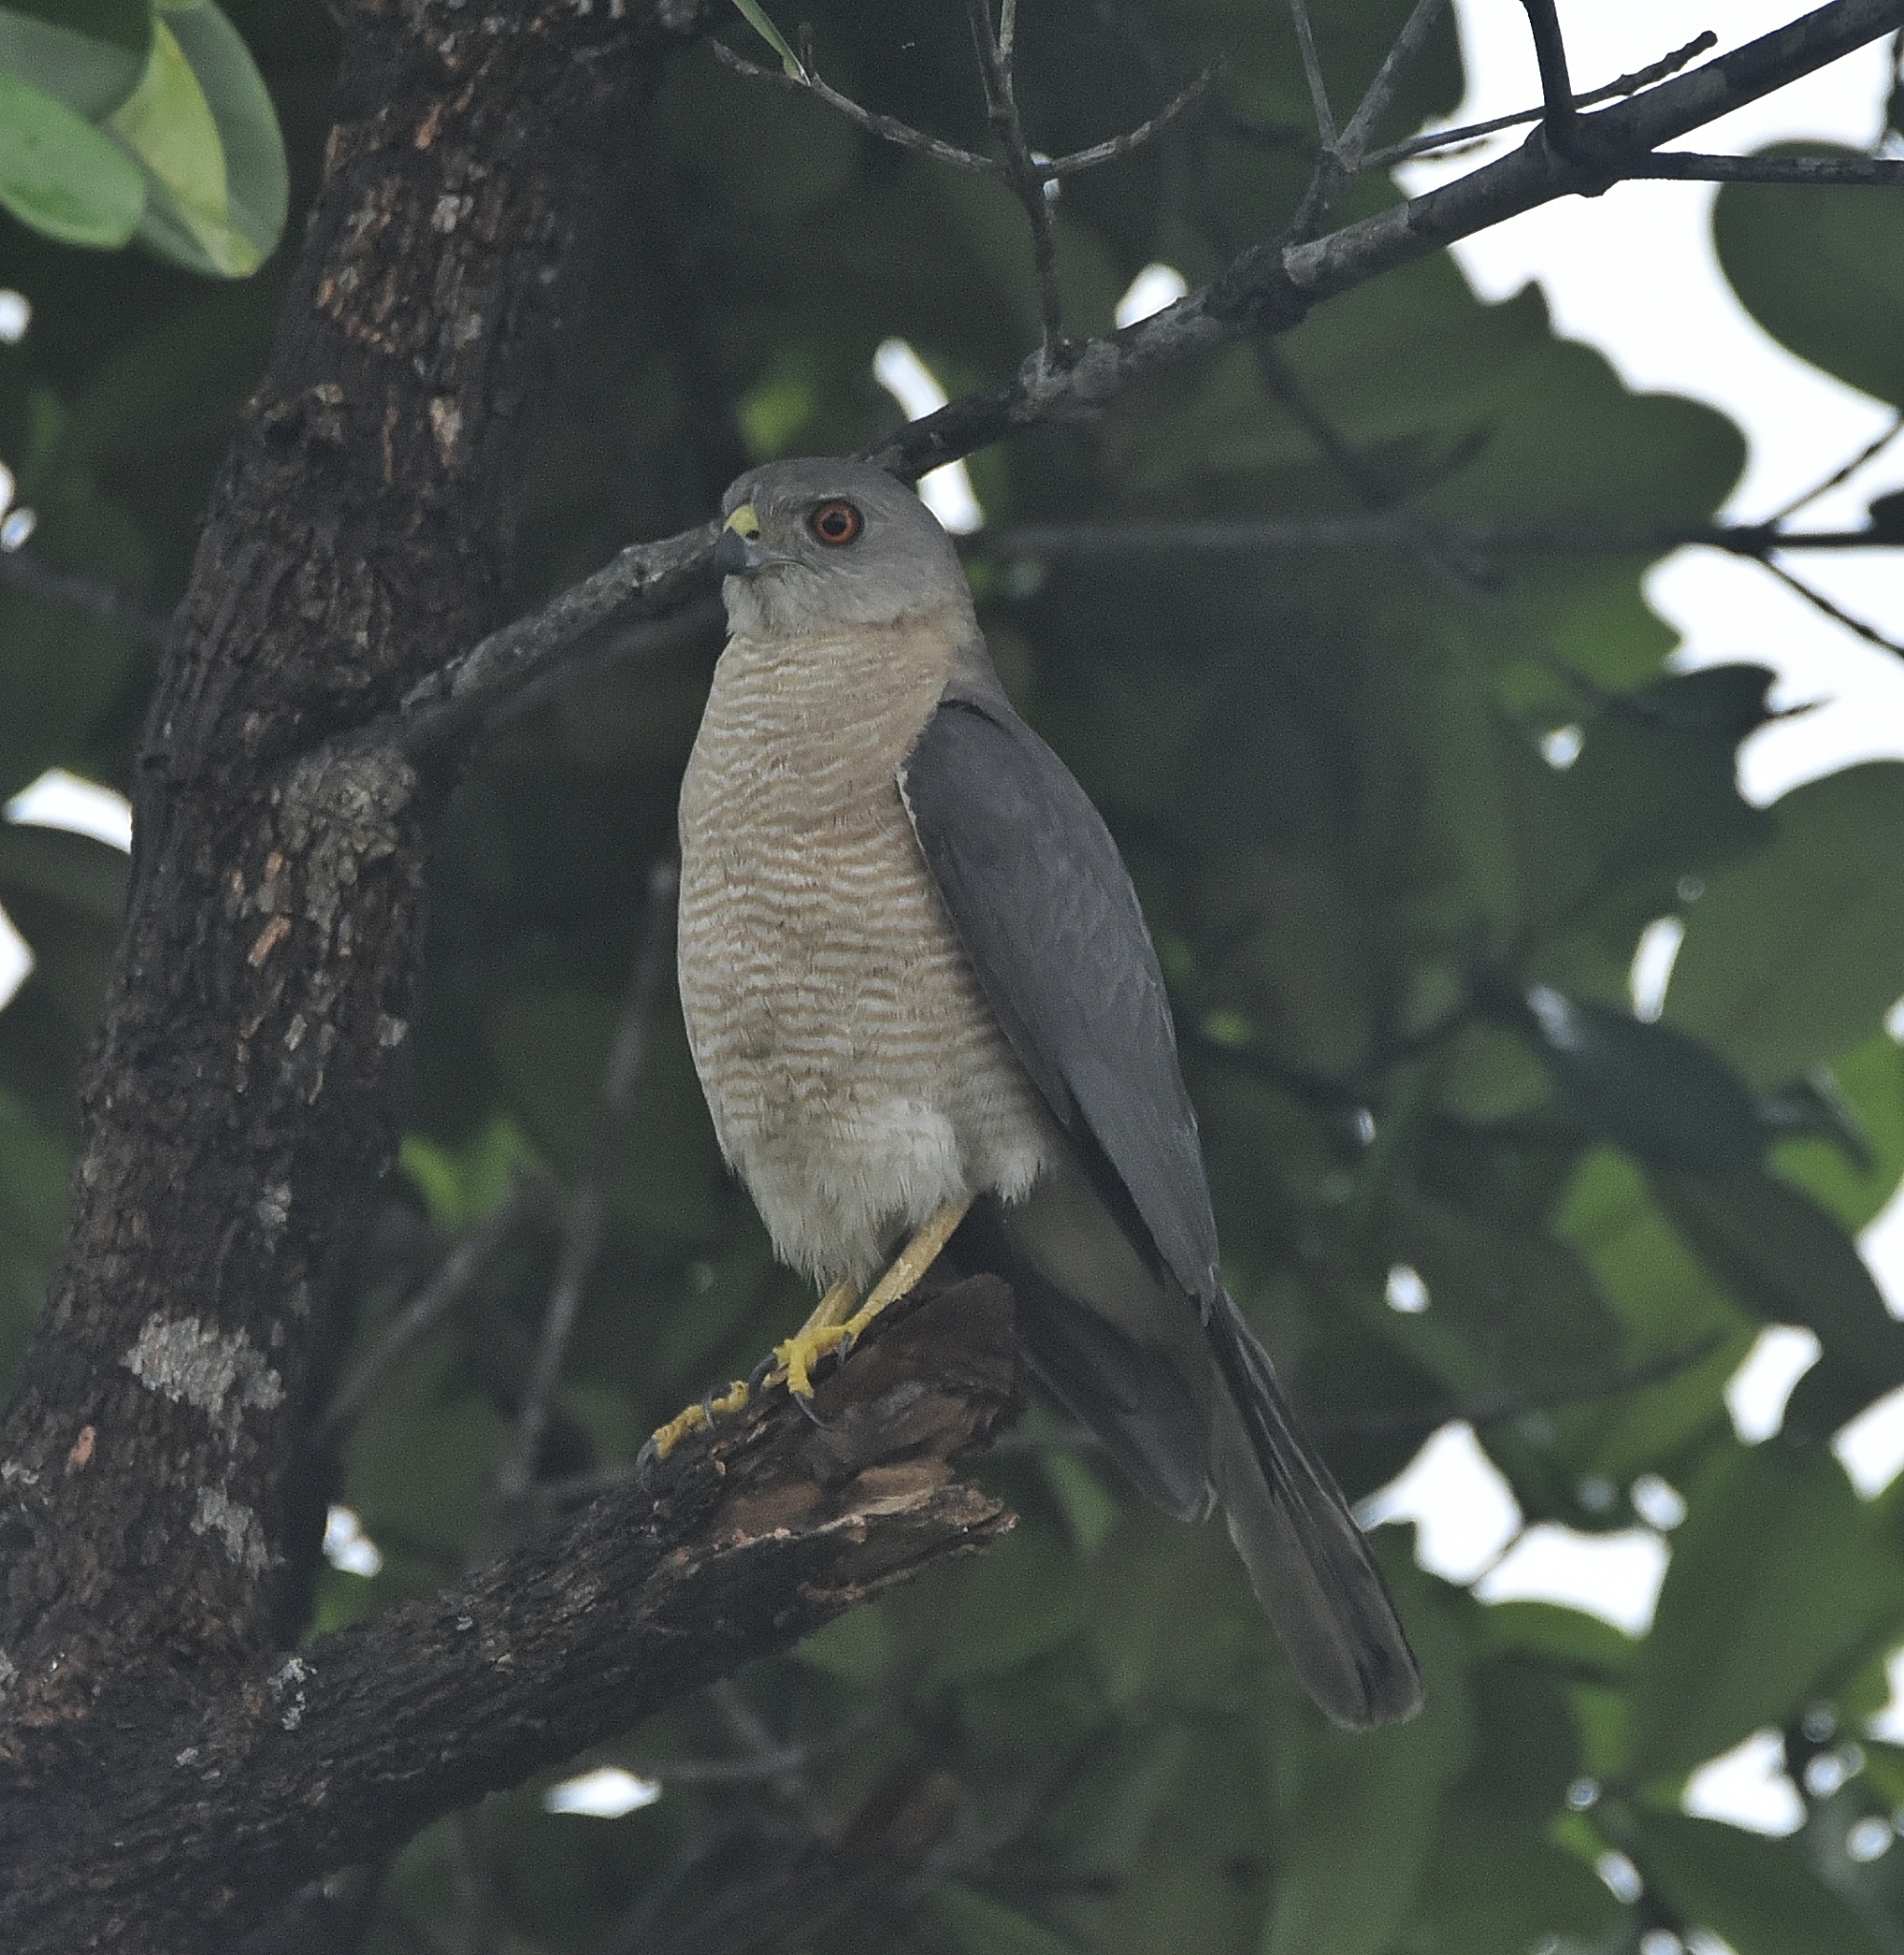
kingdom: Animalia
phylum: Chordata
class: Aves
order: Accipitriformes
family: Accipitridae
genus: Accipiter
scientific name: Accipiter badius
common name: Shikra
